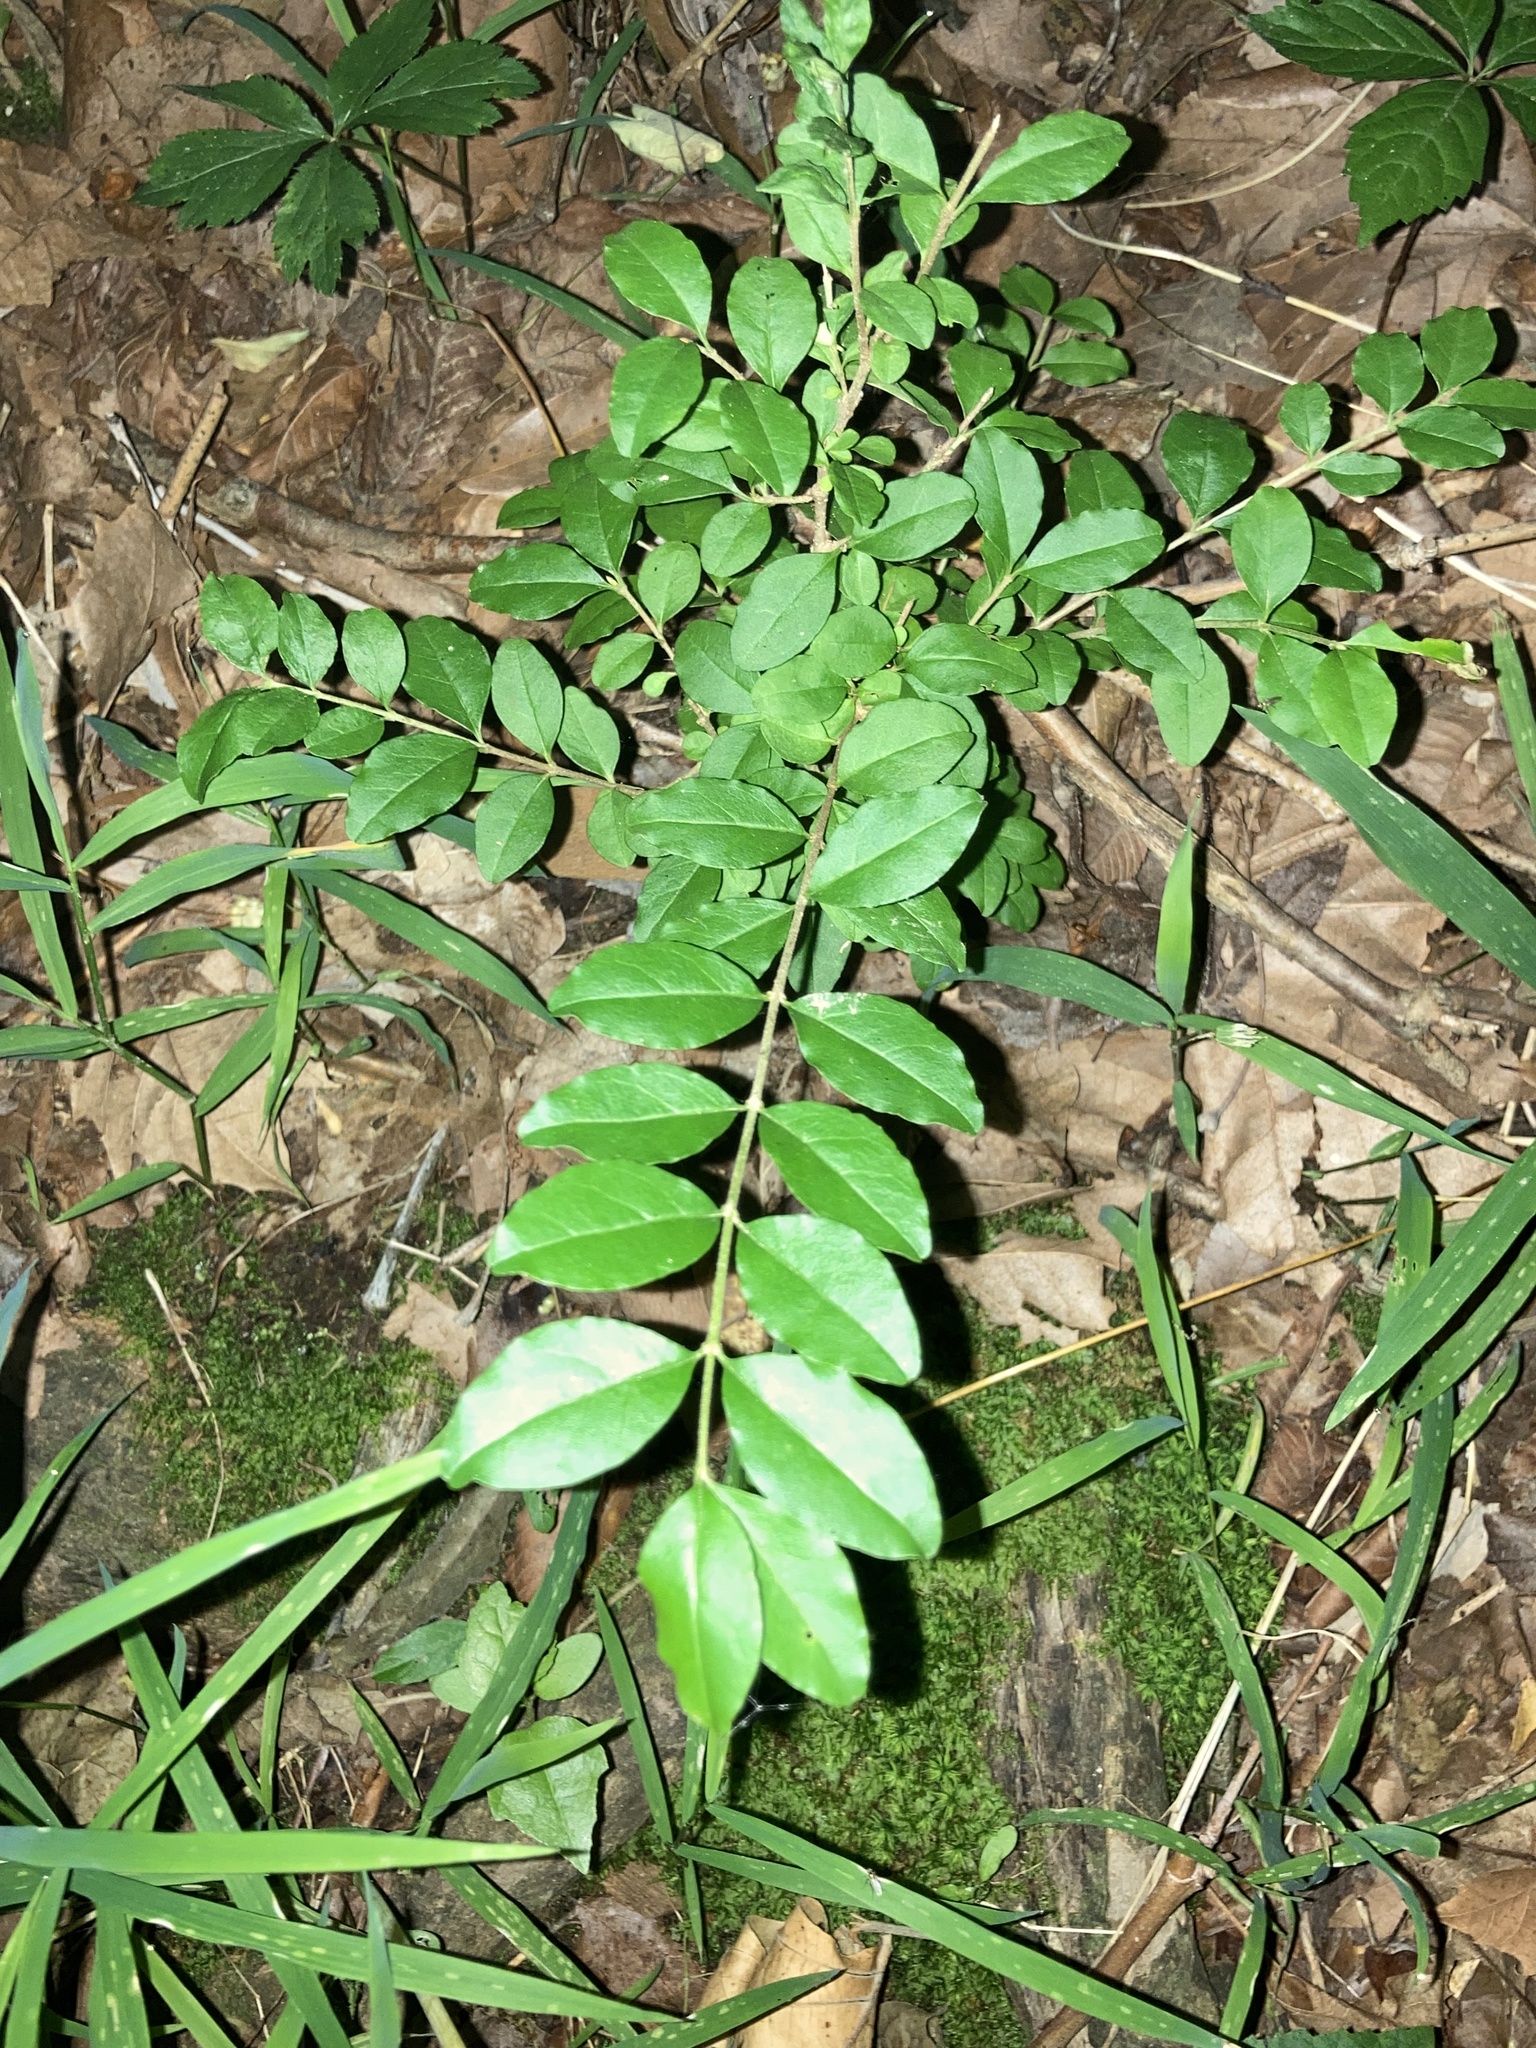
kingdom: Plantae
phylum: Tracheophyta
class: Magnoliopsida
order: Lamiales
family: Oleaceae
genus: Ligustrum
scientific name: Ligustrum sinense
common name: Chinese privet
